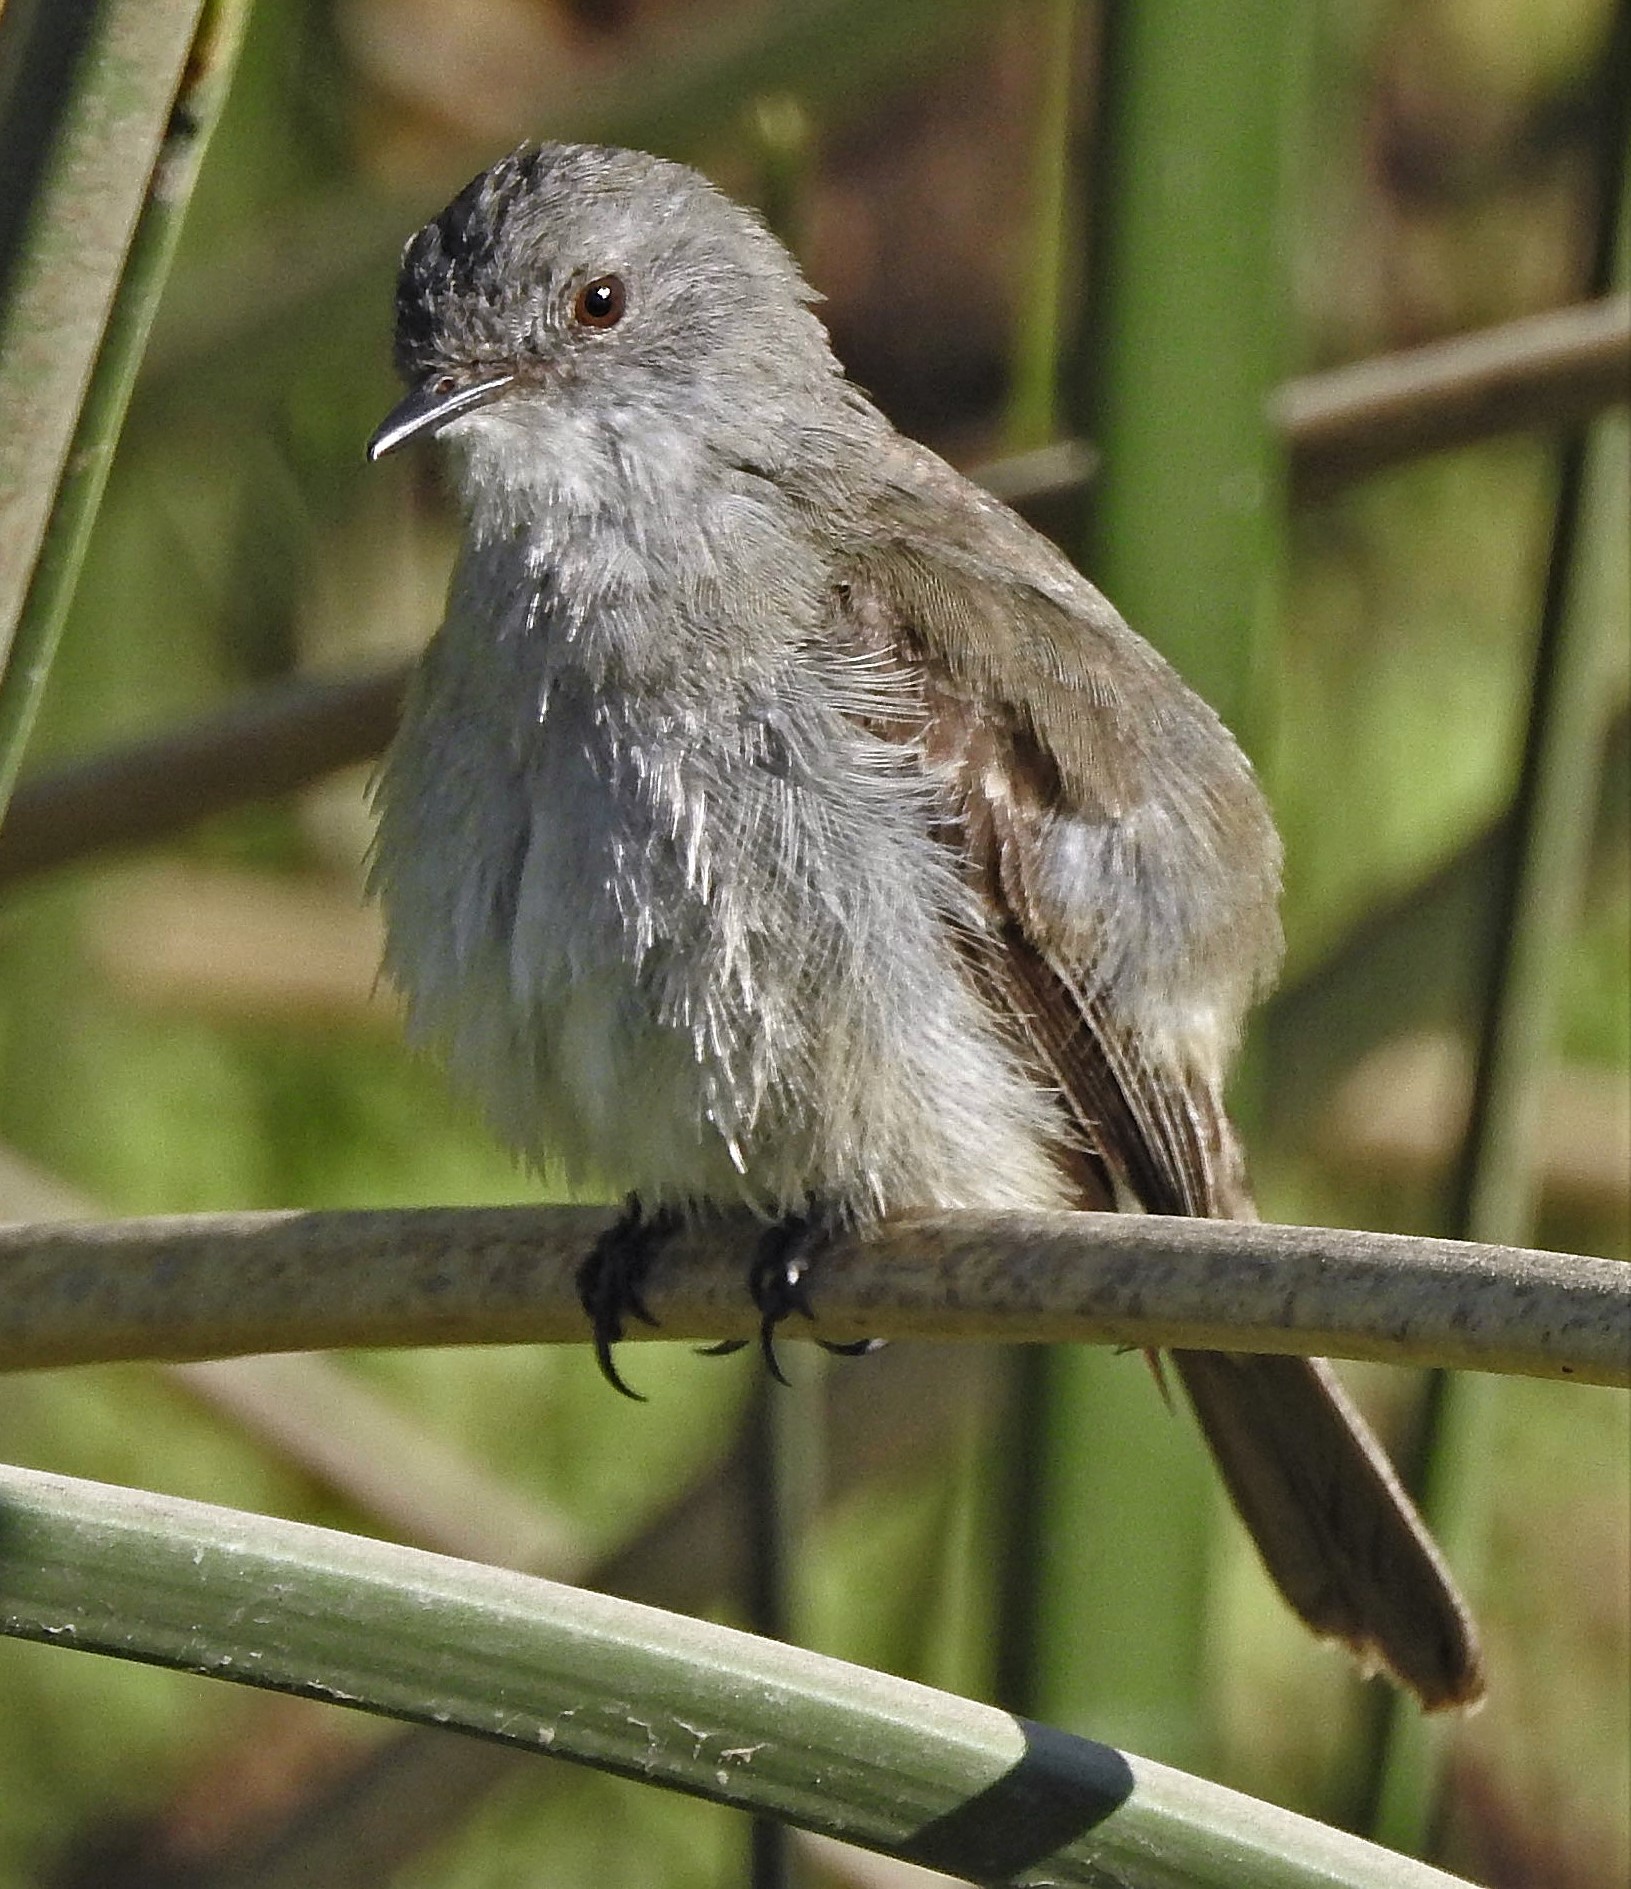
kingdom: Animalia
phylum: Chordata
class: Aves
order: Passeriformes
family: Tyrannidae
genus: Serpophaga
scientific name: Serpophaga nigricans
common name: Sooty tyrannulet
